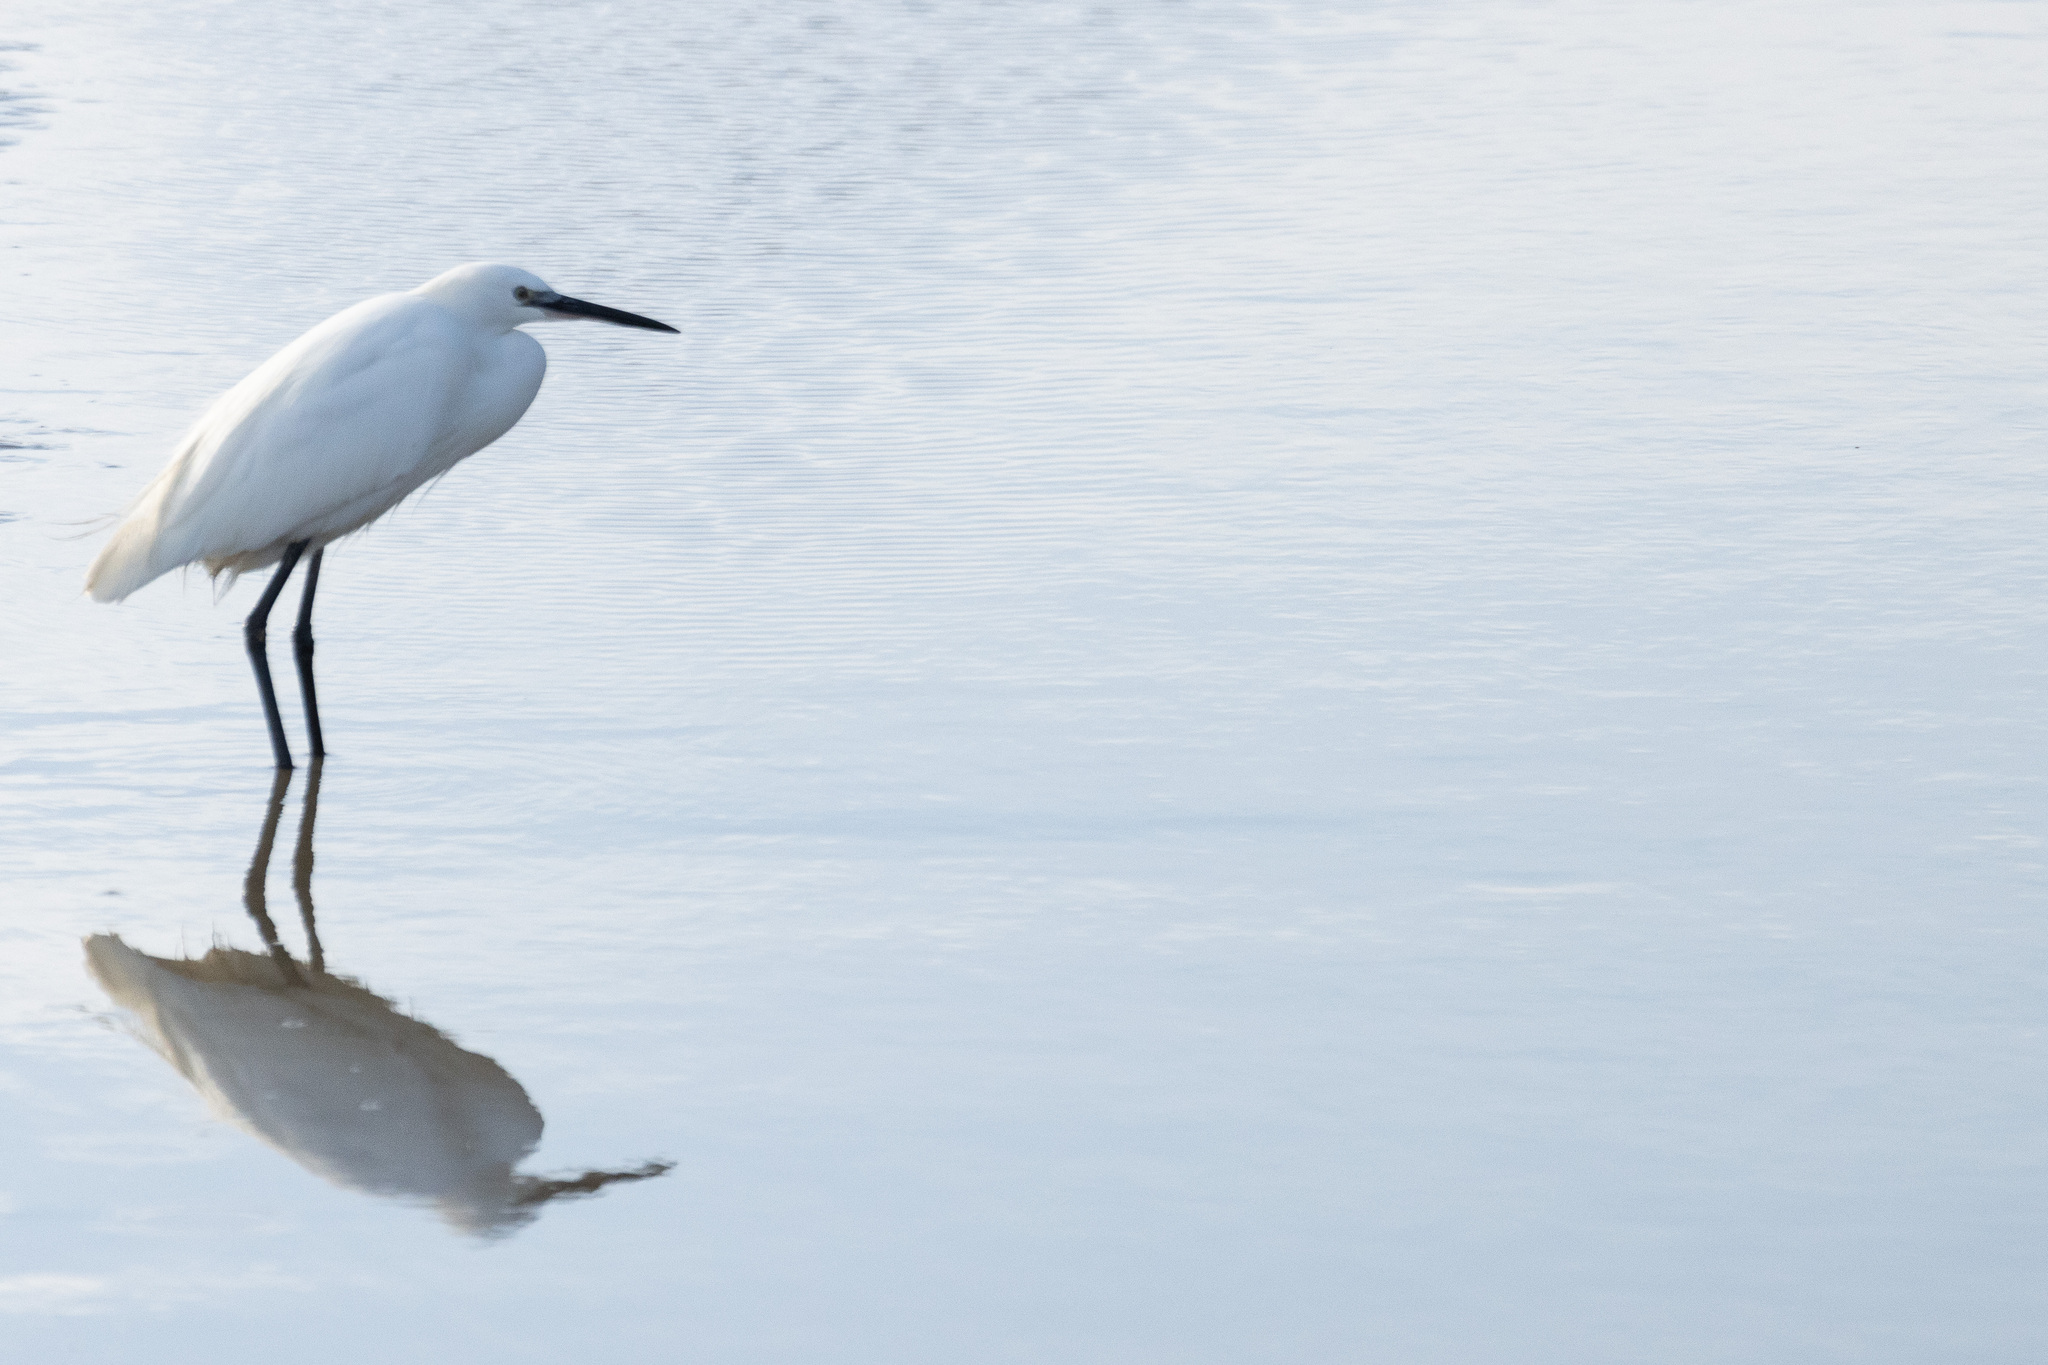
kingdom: Animalia
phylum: Chordata
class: Aves
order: Pelecaniformes
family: Ardeidae
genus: Egretta
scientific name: Egretta garzetta
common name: Little egret
